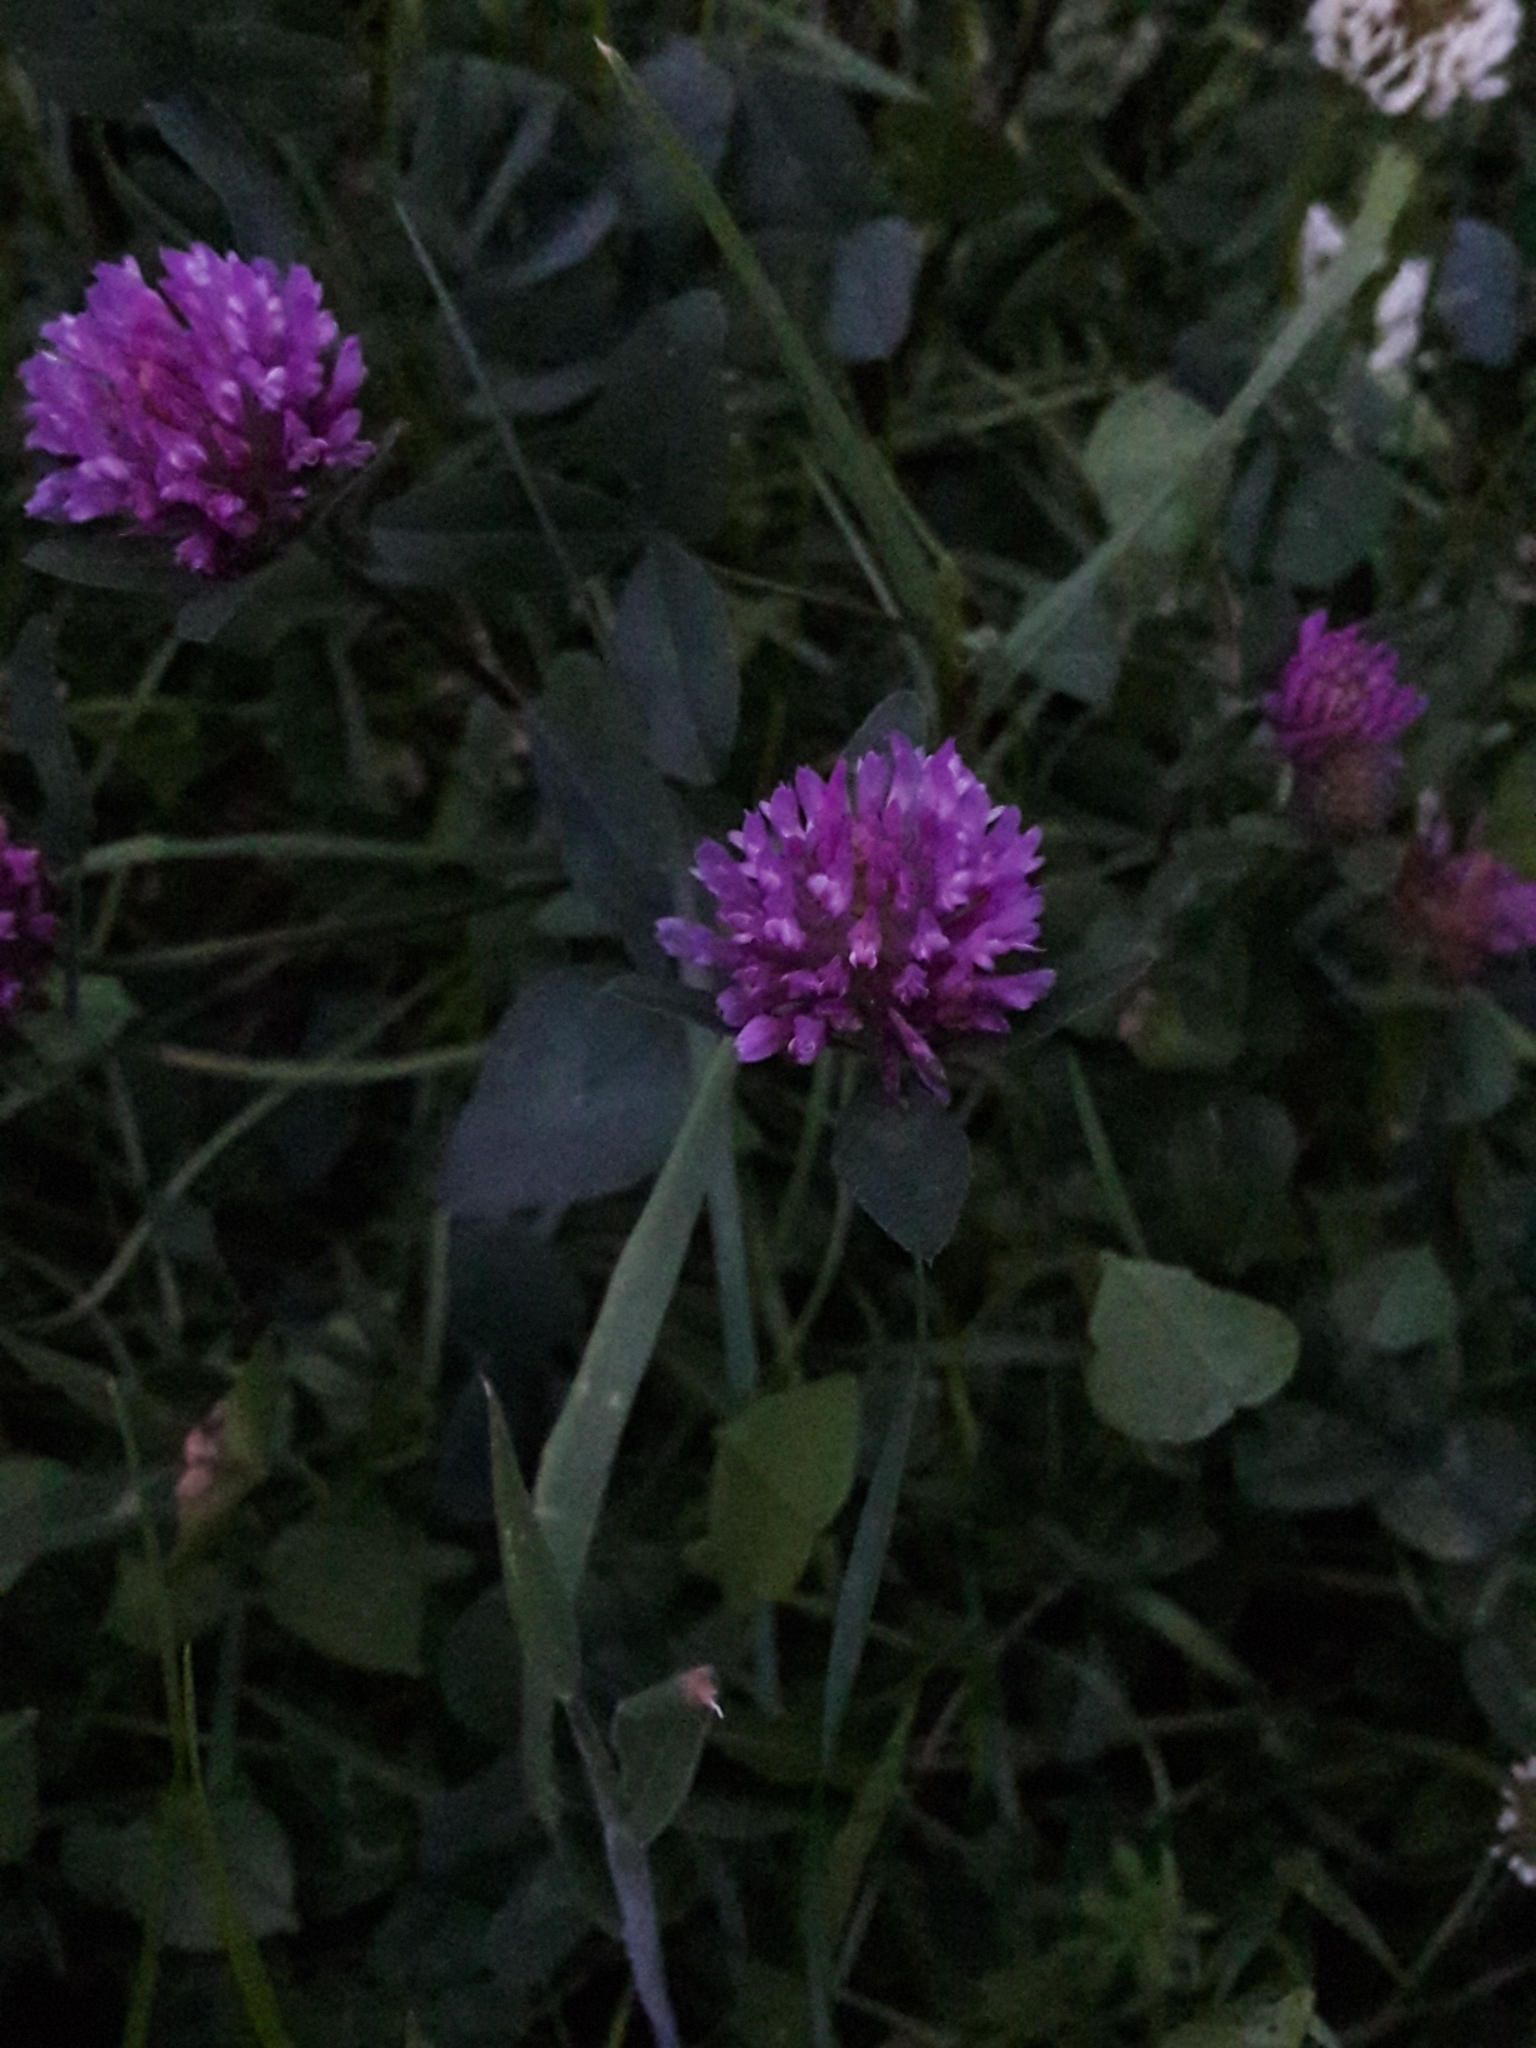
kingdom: Plantae
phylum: Tracheophyta
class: Magnoliopsida
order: Fabales
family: Fabaceae
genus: Trifolium
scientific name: Trifolium pratense
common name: Red clover
